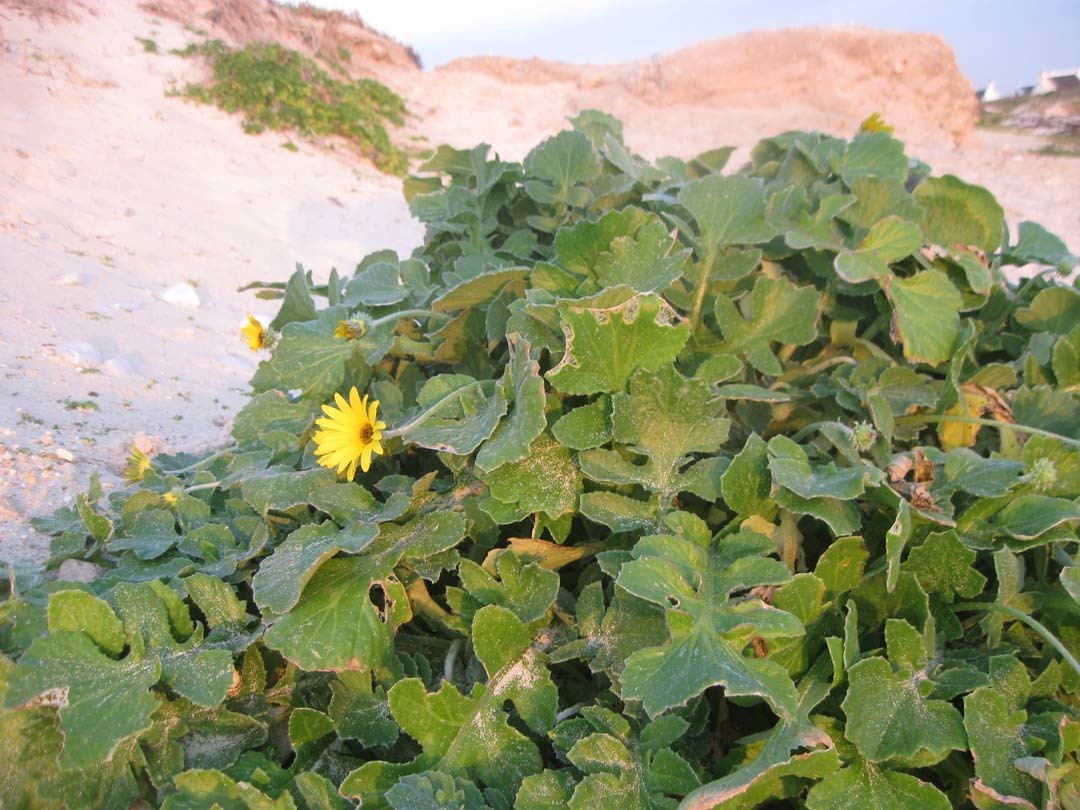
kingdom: Plantae
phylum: Tracheophyta
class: Magnoliopsida
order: Asterales
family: Asteraceae
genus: Arctotheca
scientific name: Arctotheca calendula
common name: Capeweed
